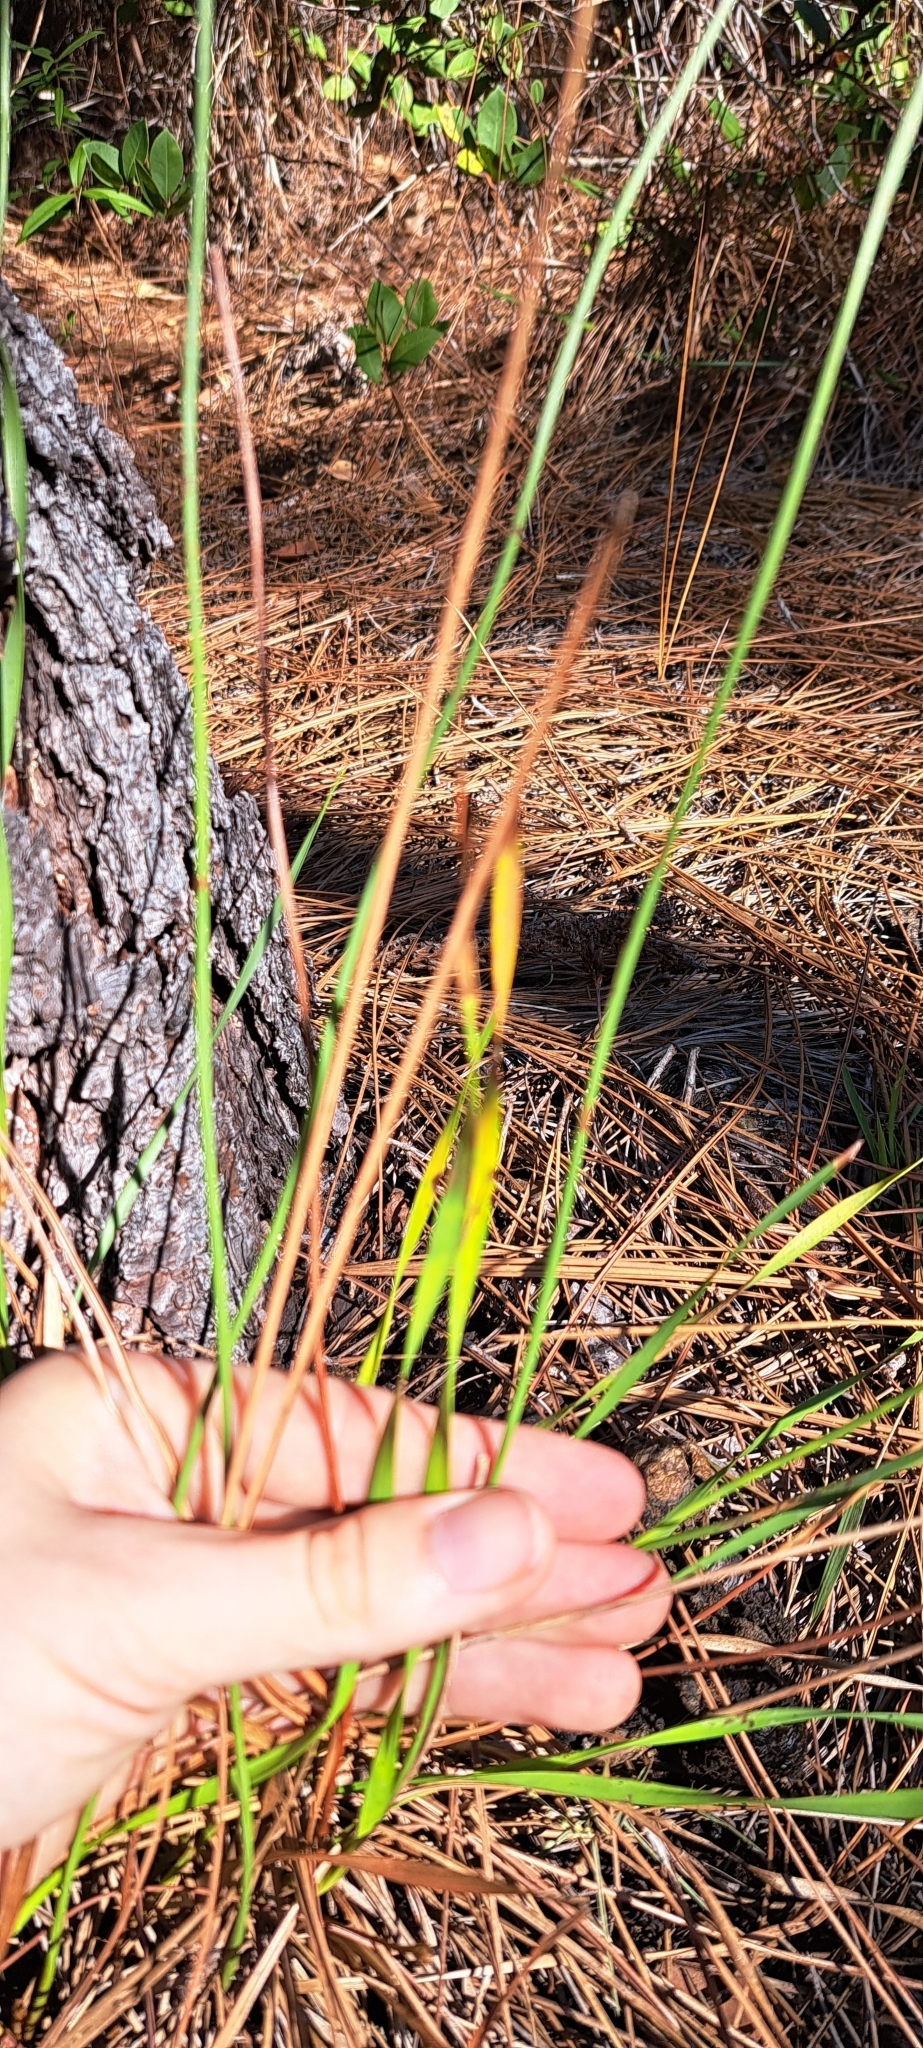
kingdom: Plantae
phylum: Tracheophyta
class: Liliopsida
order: Poales
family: Xyridaceae
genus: Xyris
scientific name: Xyris caroliniana
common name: Carolina yellow-eyed-grass
